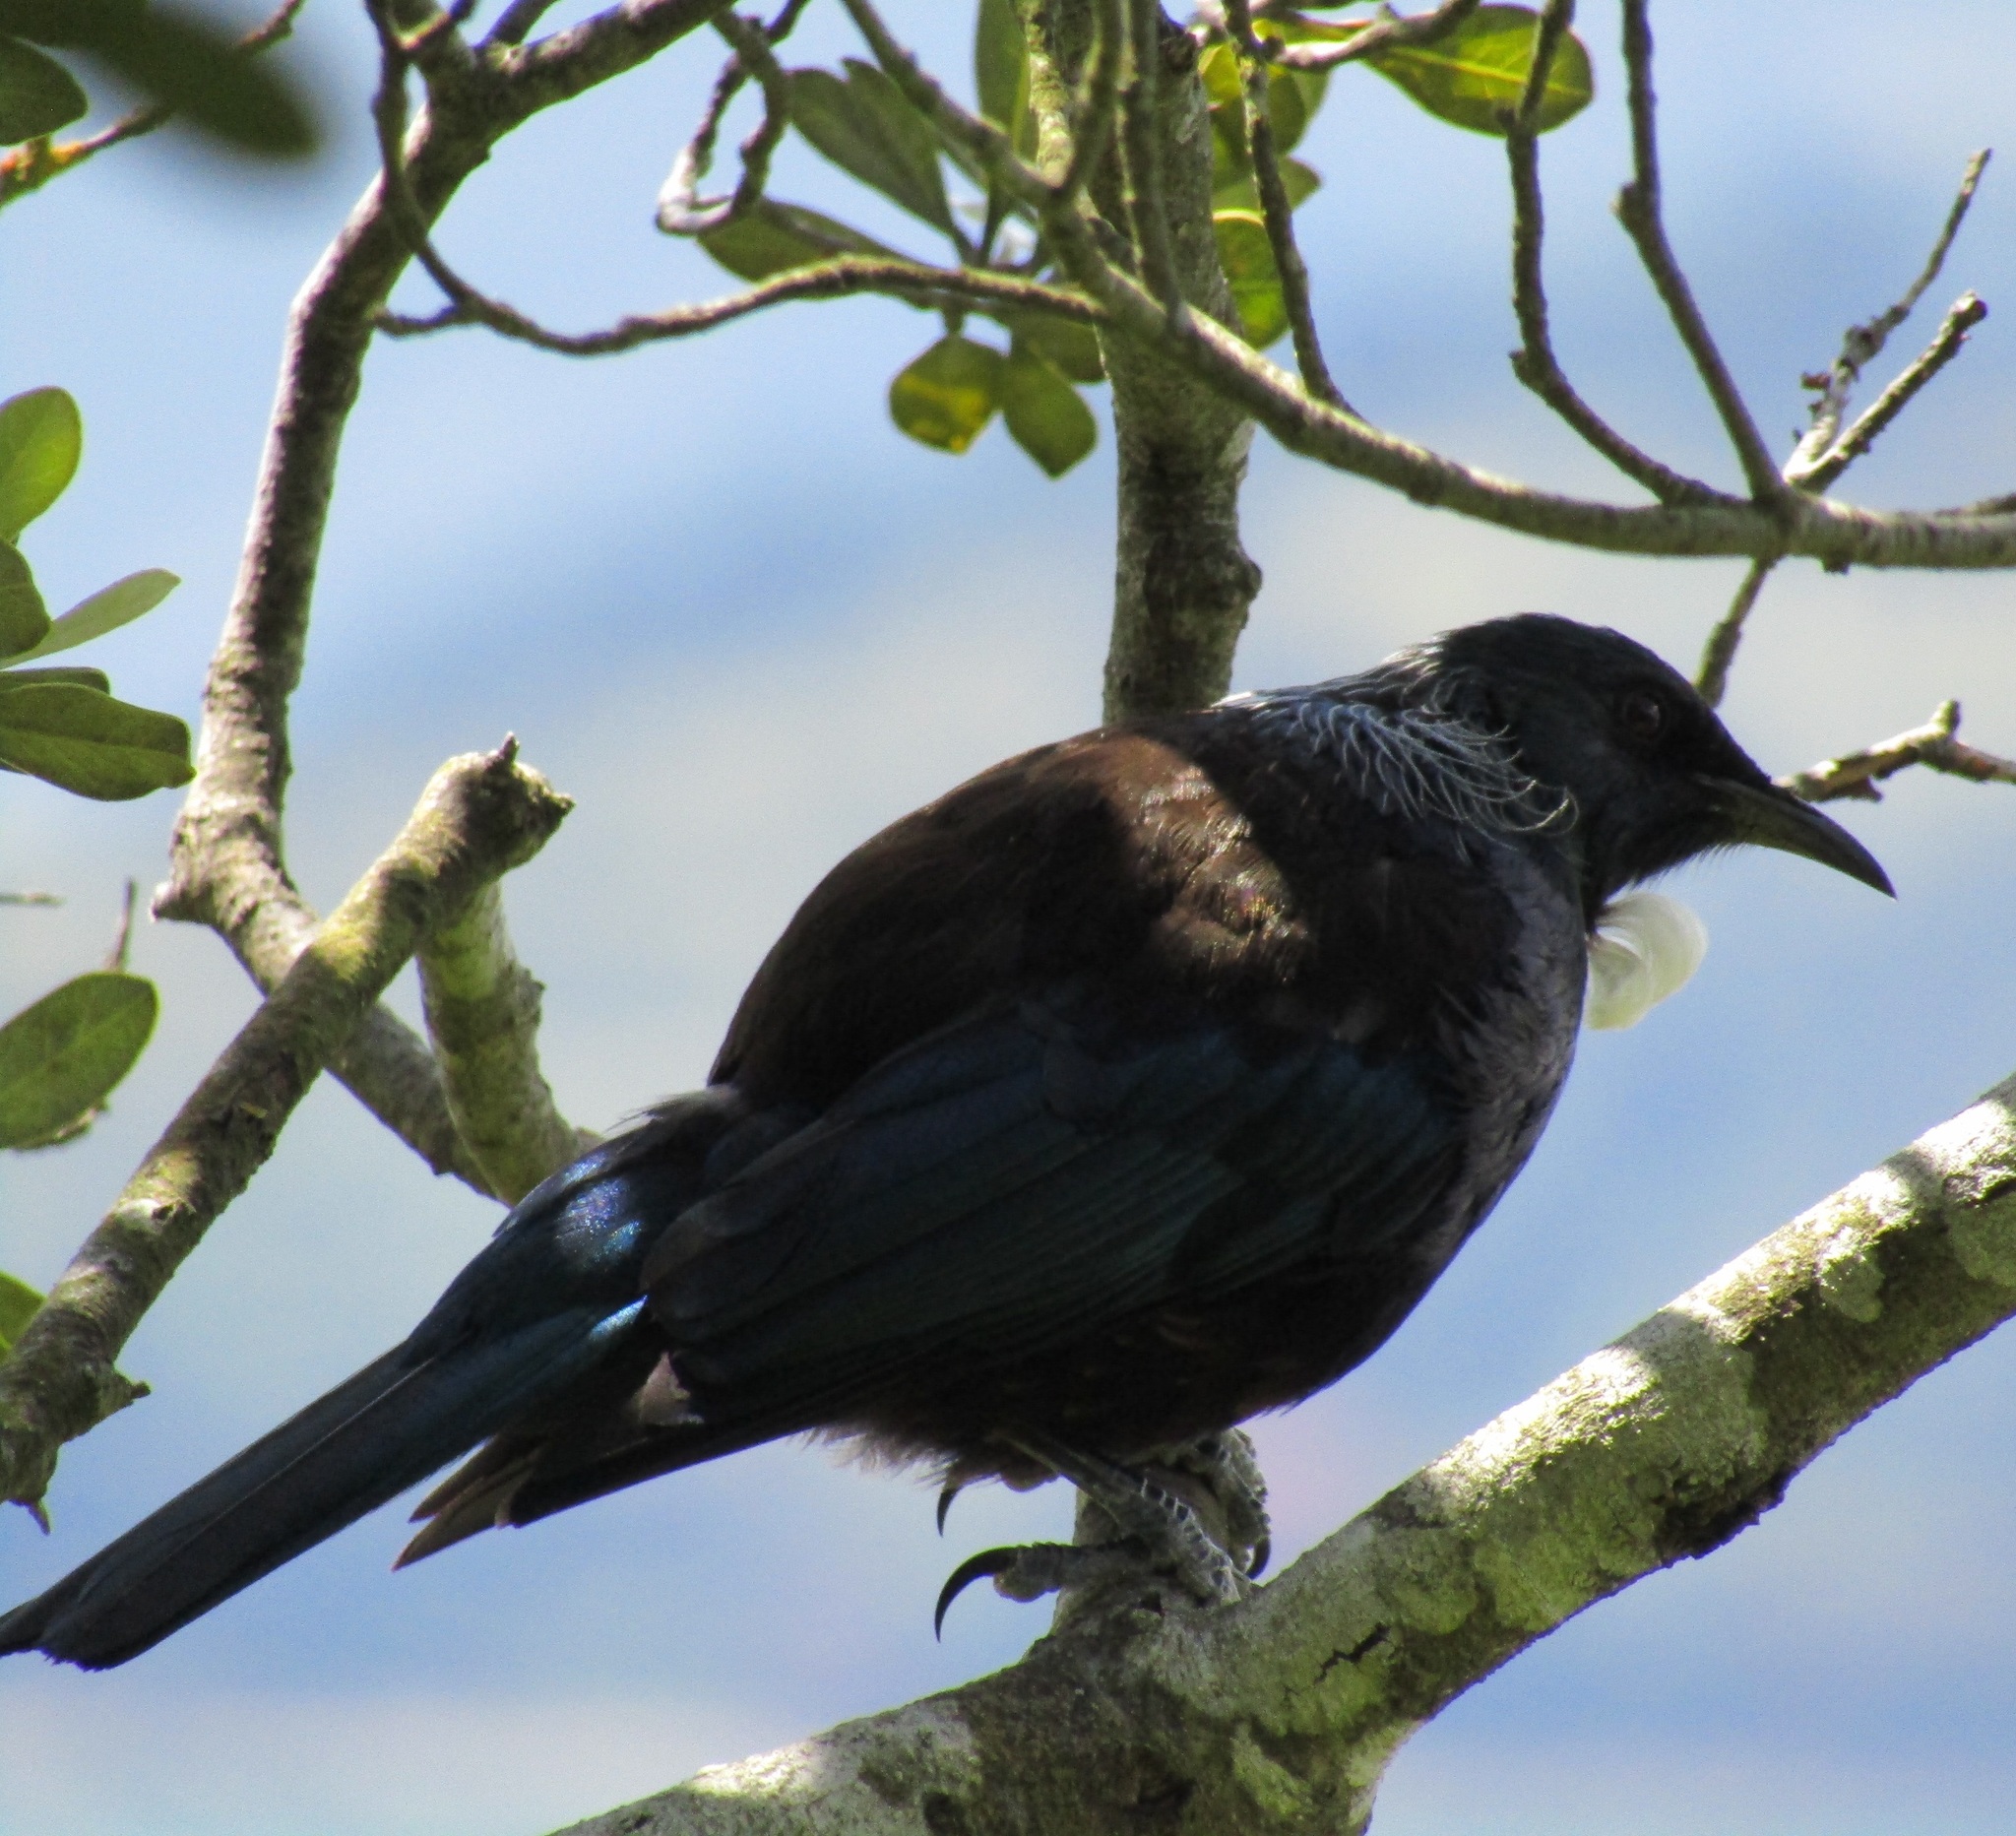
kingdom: Animalia
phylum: Chordata
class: Aves
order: Passeriformes
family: Meliphagidae
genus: Prosthemadera
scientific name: Prosthemadera novaeseelandiae
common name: Tui
